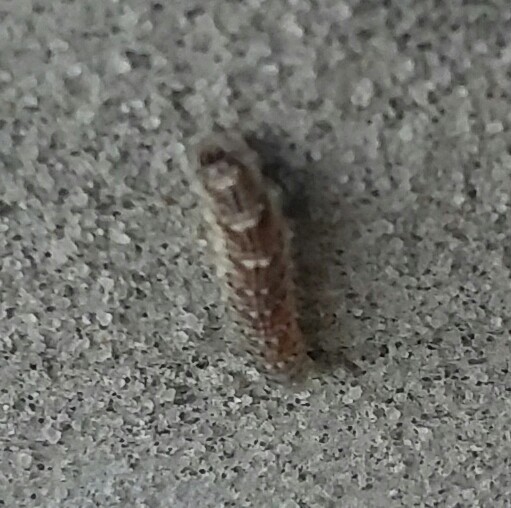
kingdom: Animalia
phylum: Arthropoda
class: Insecta
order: Diptera
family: Syrphidae
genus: Eupeodes
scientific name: Eupeodes americanus
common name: Long-tailed aphideater
